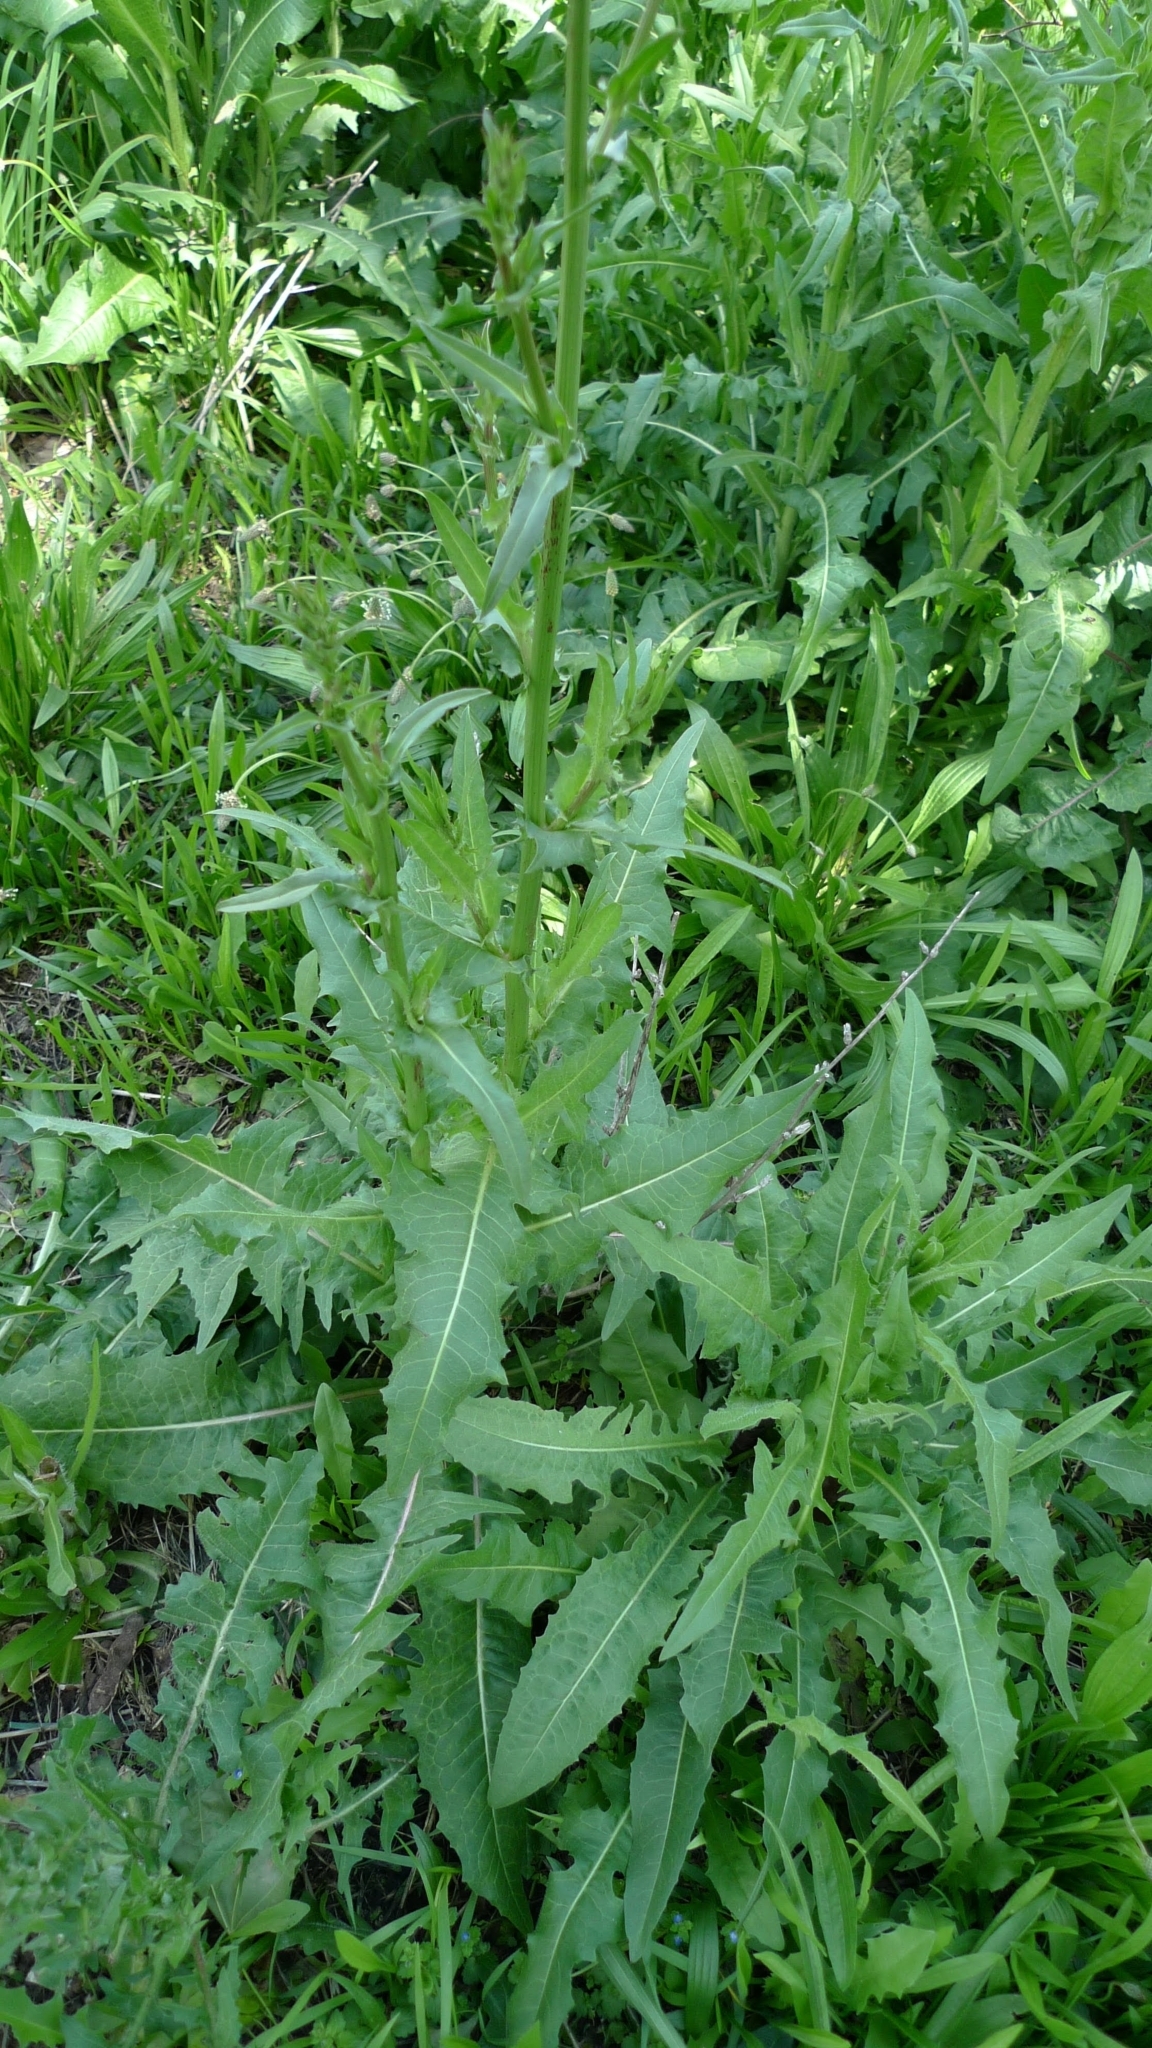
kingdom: Plantae
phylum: Tracheophyta
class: Magnoliopsida
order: Asterales
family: Asteraceae
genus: Cichorium
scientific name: Cichorium intybus
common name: Chicory
